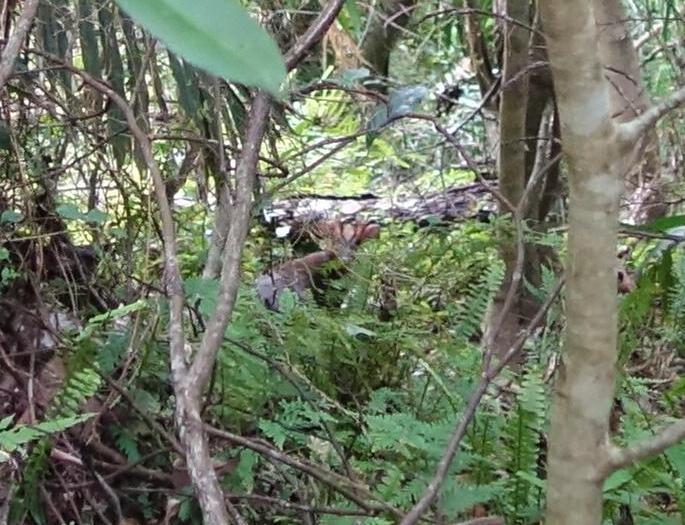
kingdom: Animalia
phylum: Chordata
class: Mammalia
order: Artiodactyla
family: Cervidae
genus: Muntiacus
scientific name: Muntiacus reevesi
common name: Reeves' muntjac
